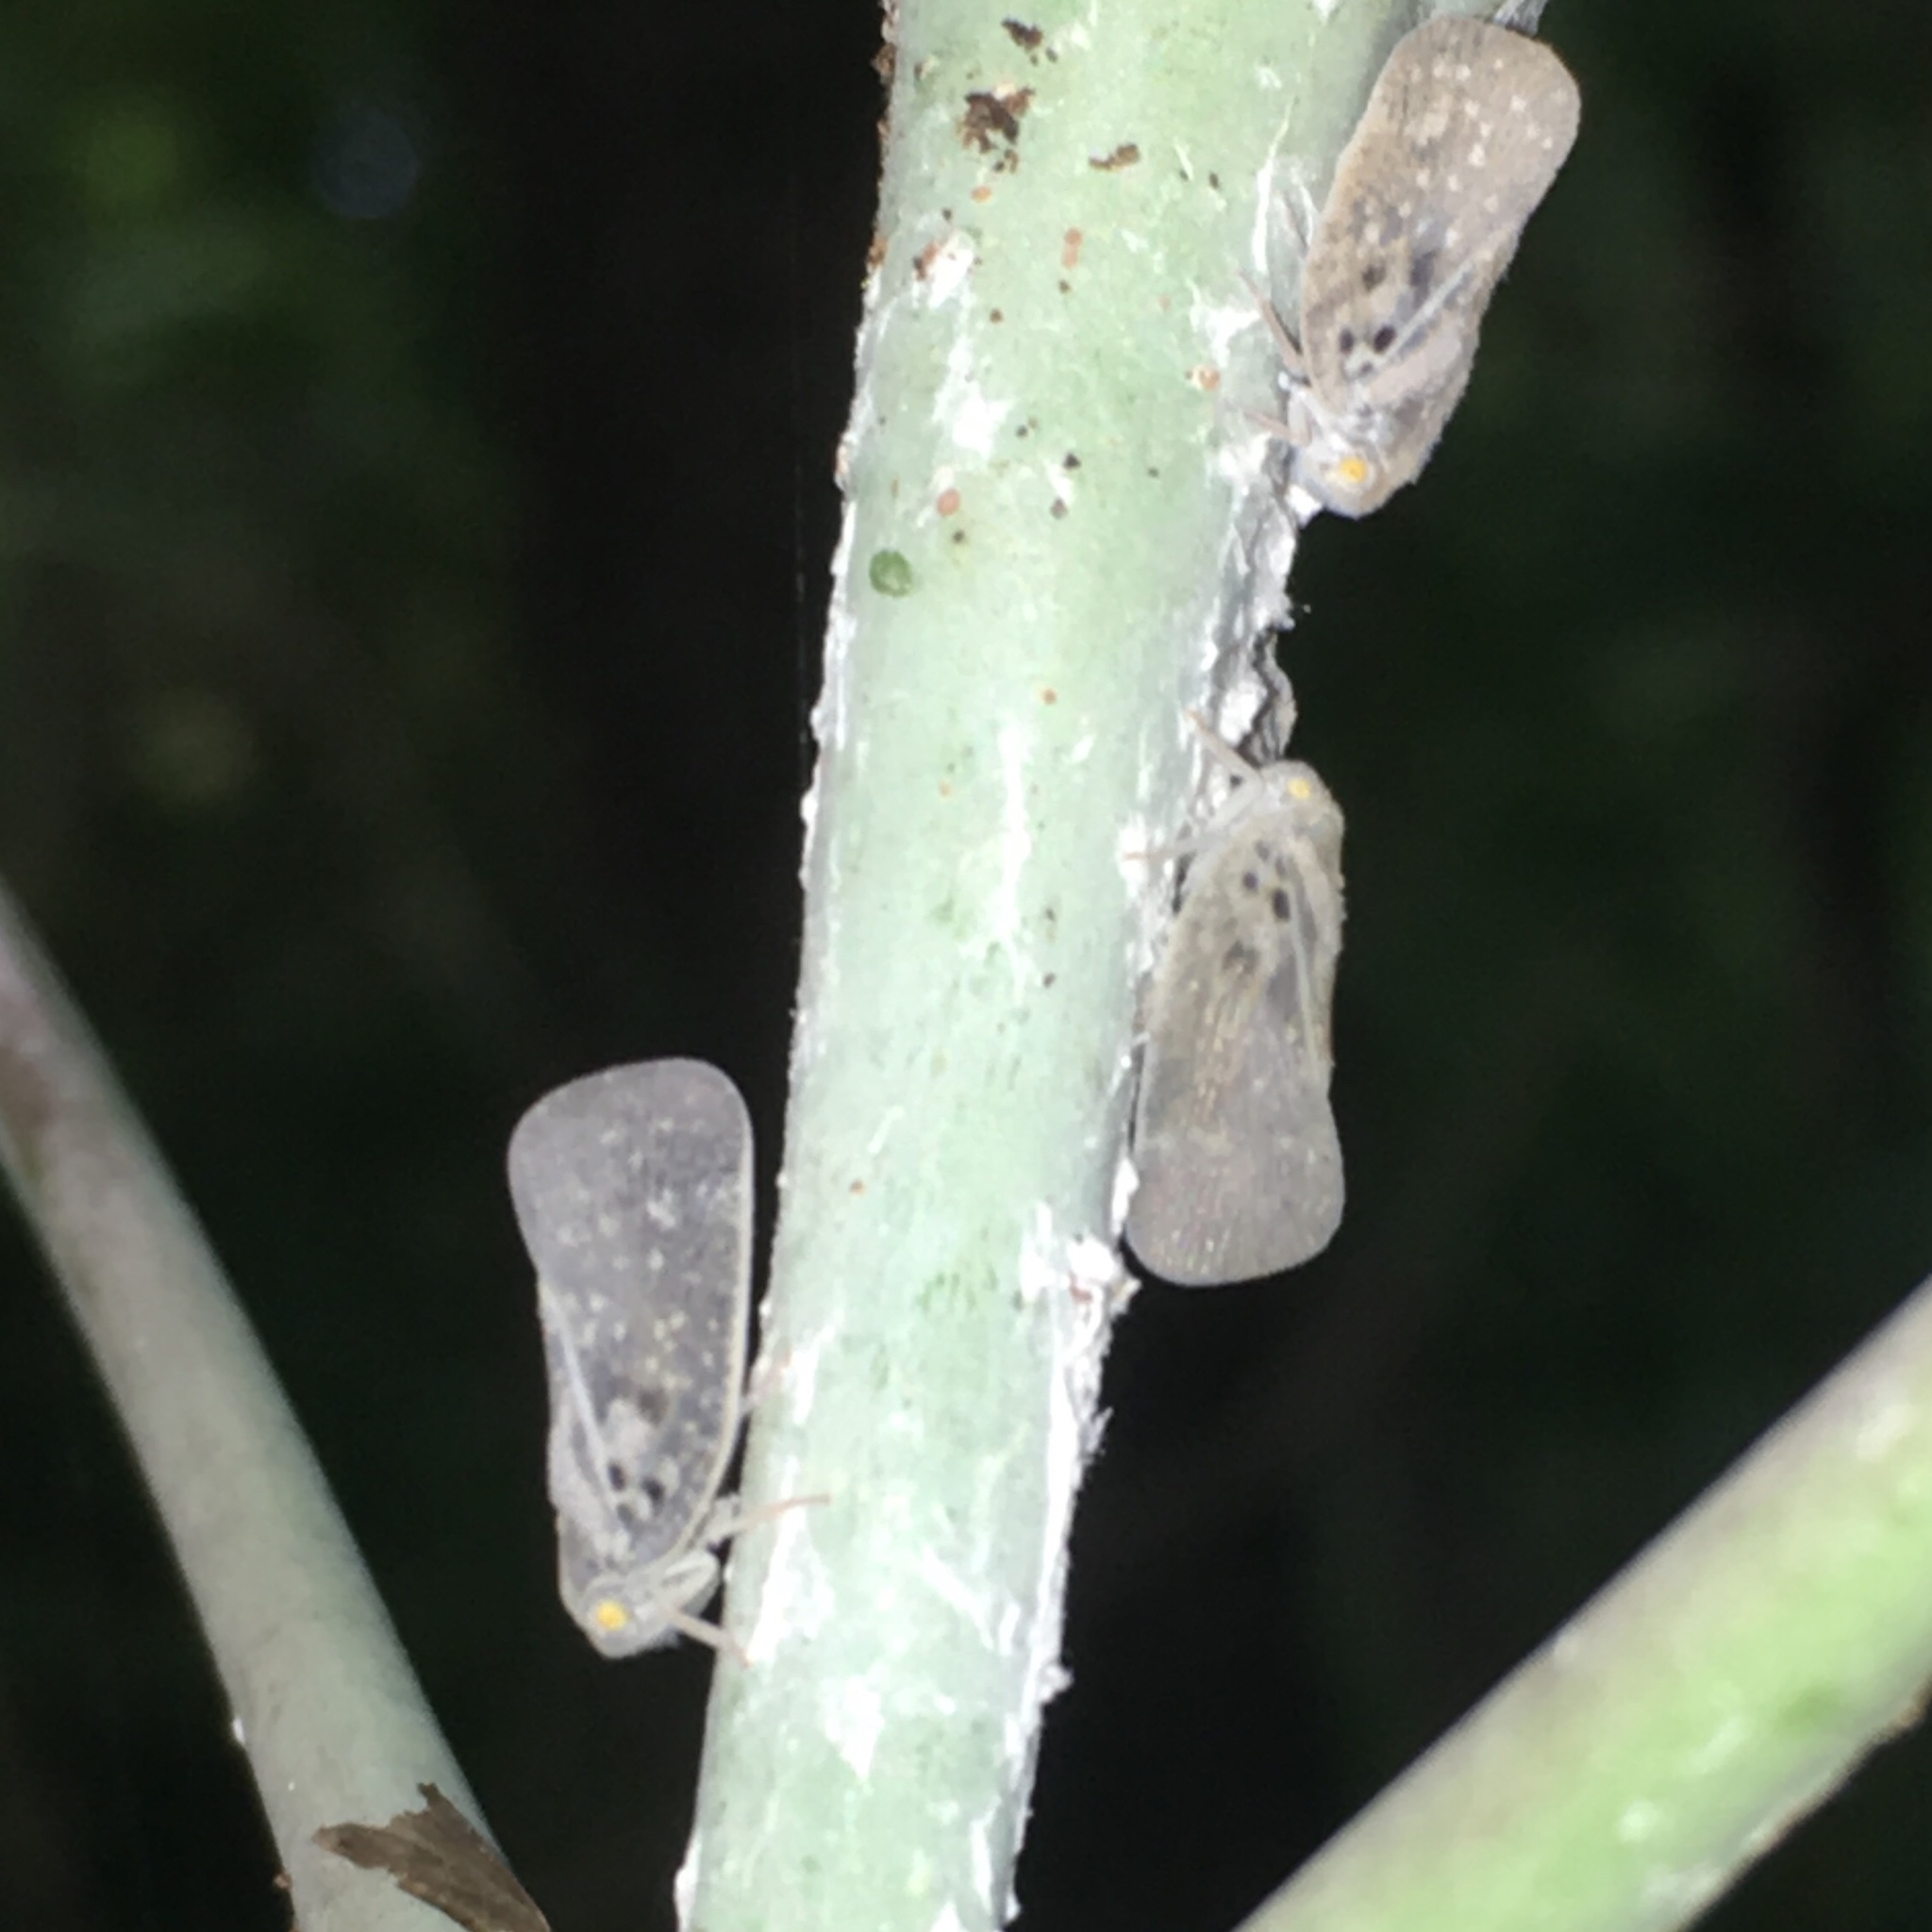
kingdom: Animalia
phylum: Arthropoda
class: Insecta
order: Hemiptera
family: Flatidae
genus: Metcalfa
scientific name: Metcalfa pruinosa
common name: Citrus flatid planthopper
